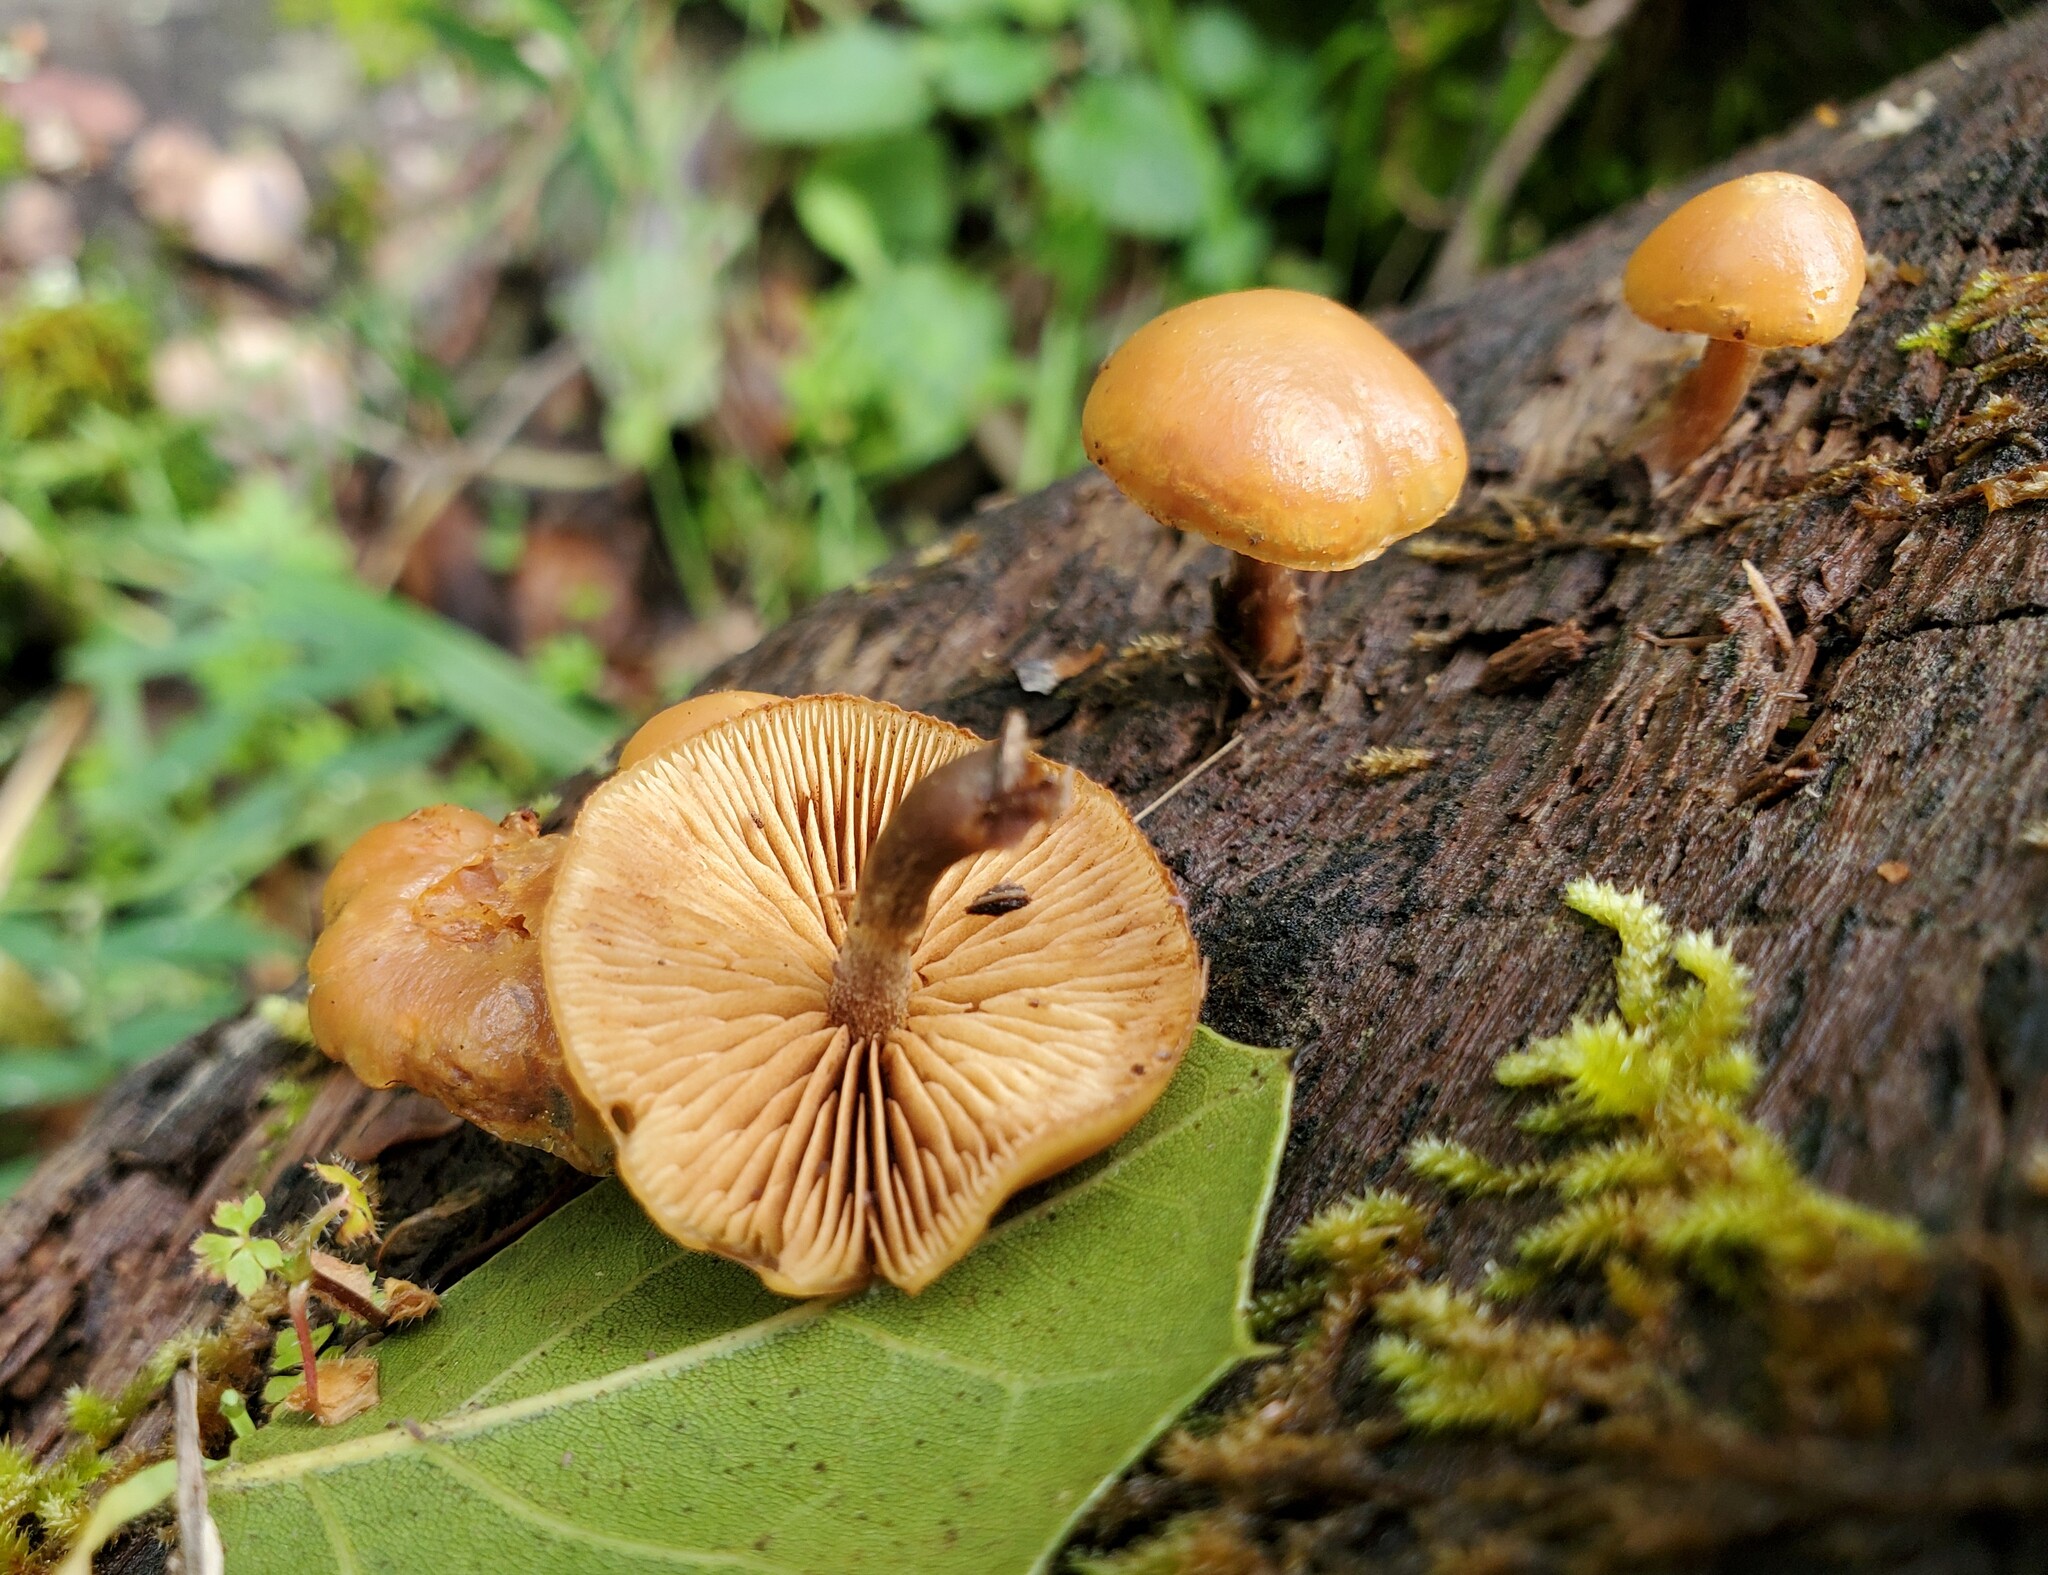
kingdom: Fungi
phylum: Basidiomycota
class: Agaricomycetes
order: Agaricales
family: Hymenogastraceae
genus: Galerina
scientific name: Galerina marginata
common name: Funeral bell
